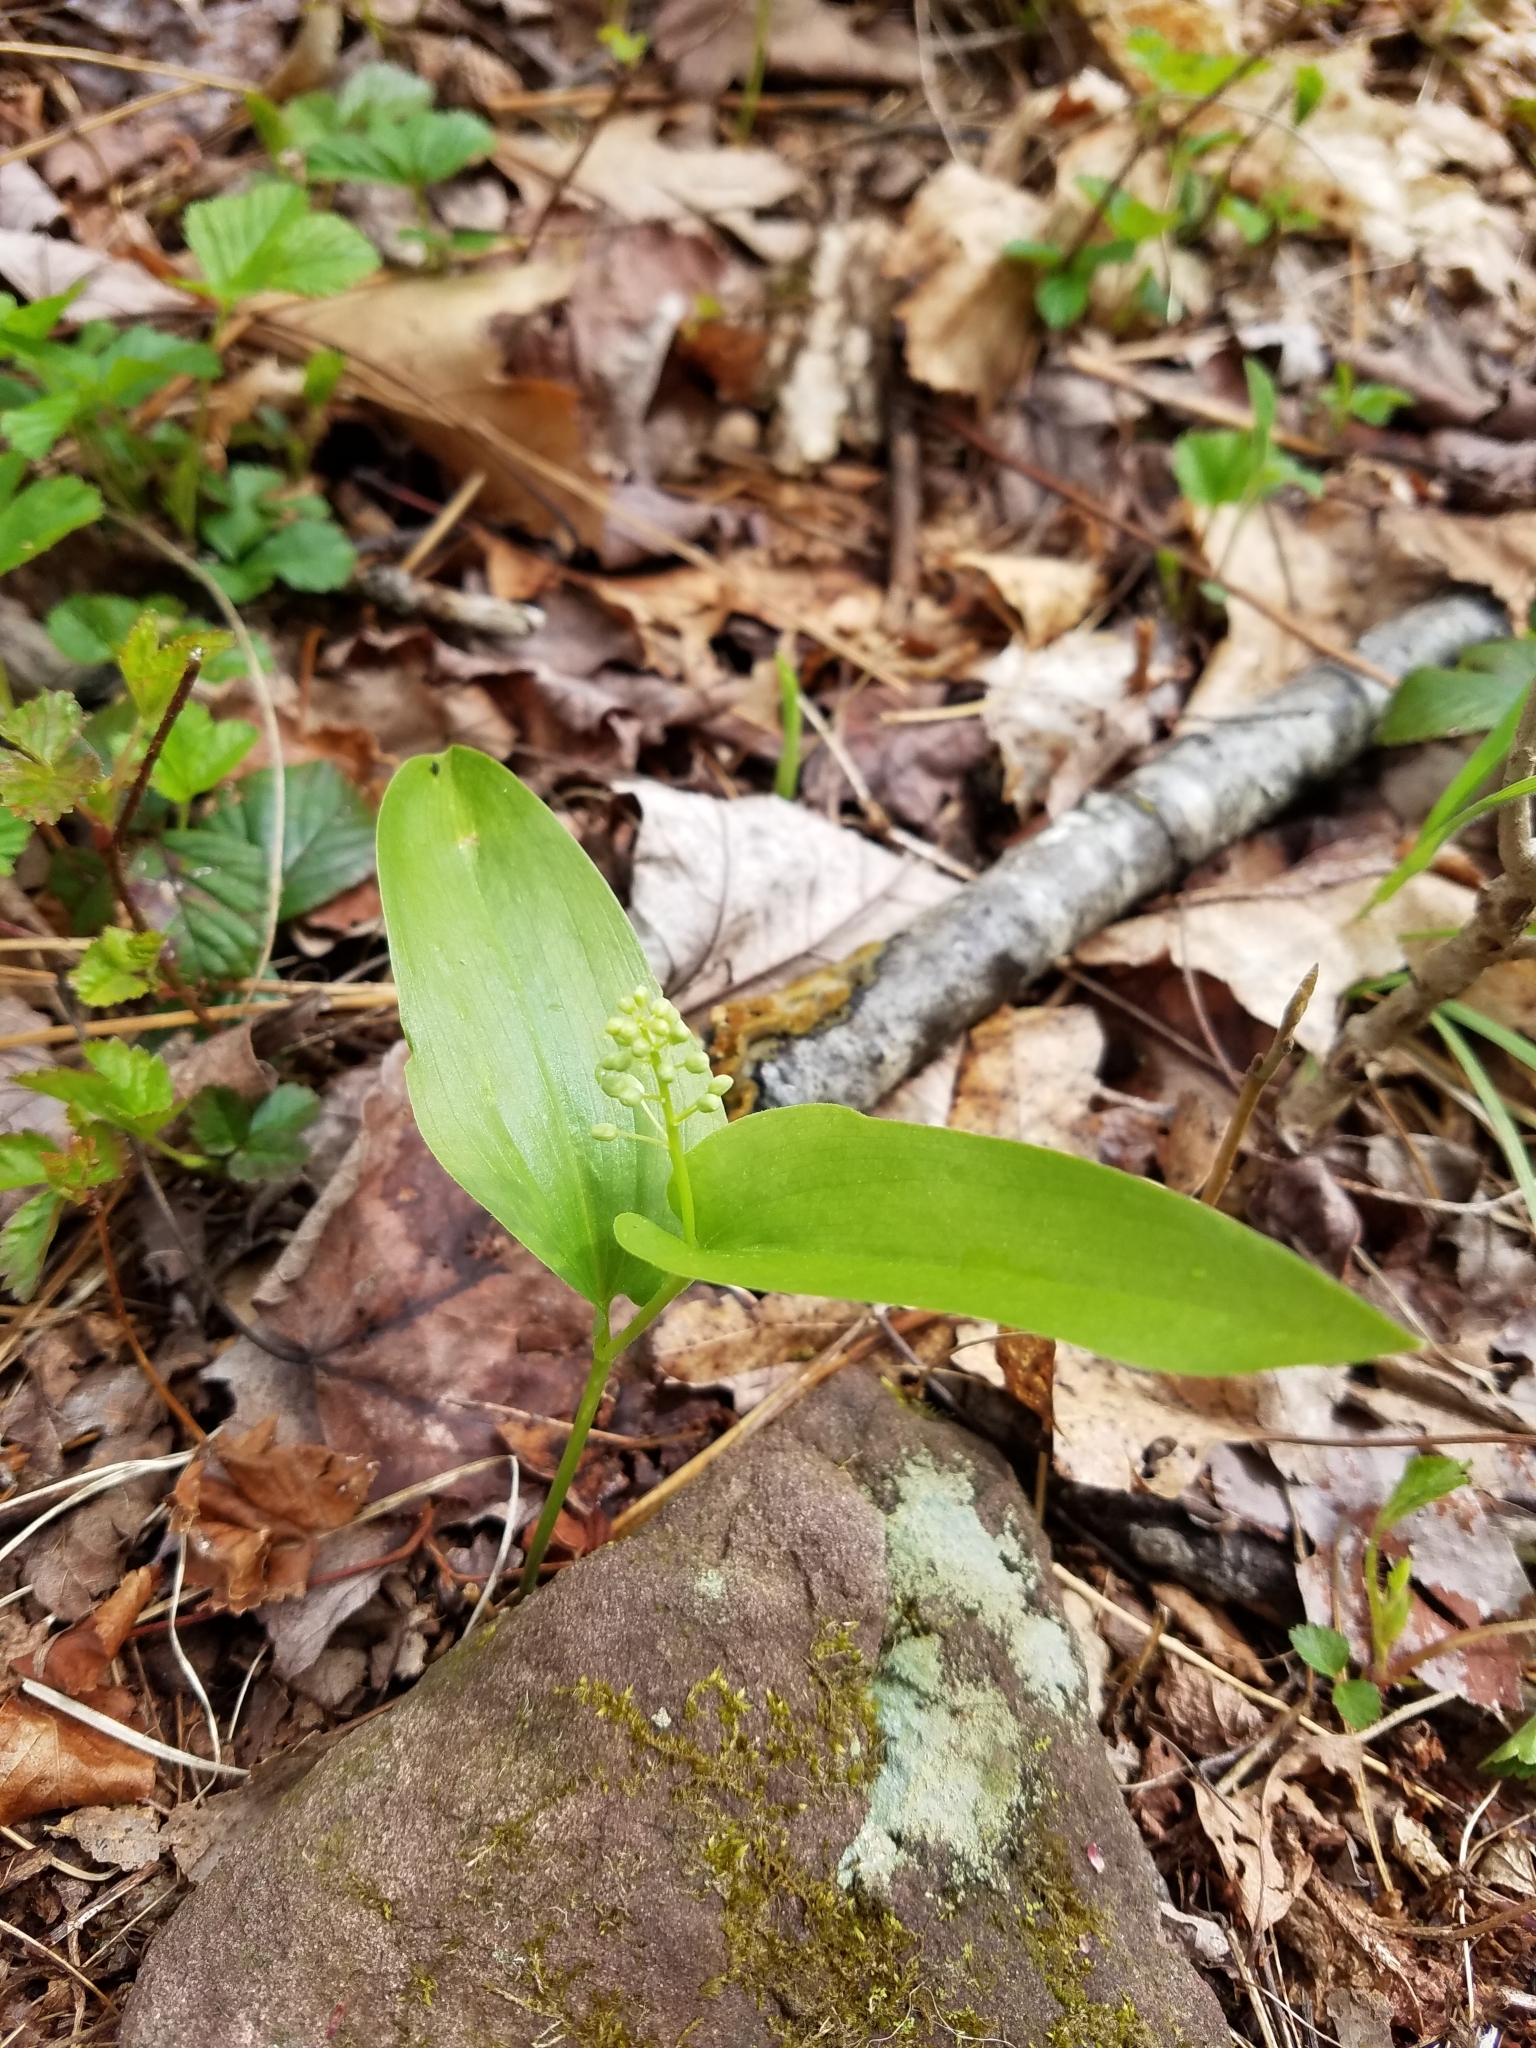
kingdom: Plantae
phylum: Tracheophyta
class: Liliopsida
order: Asparagales
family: Asparagaceae
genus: Maianthemum
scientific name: Maianthemum canadense
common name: False lily-of-the-valley
